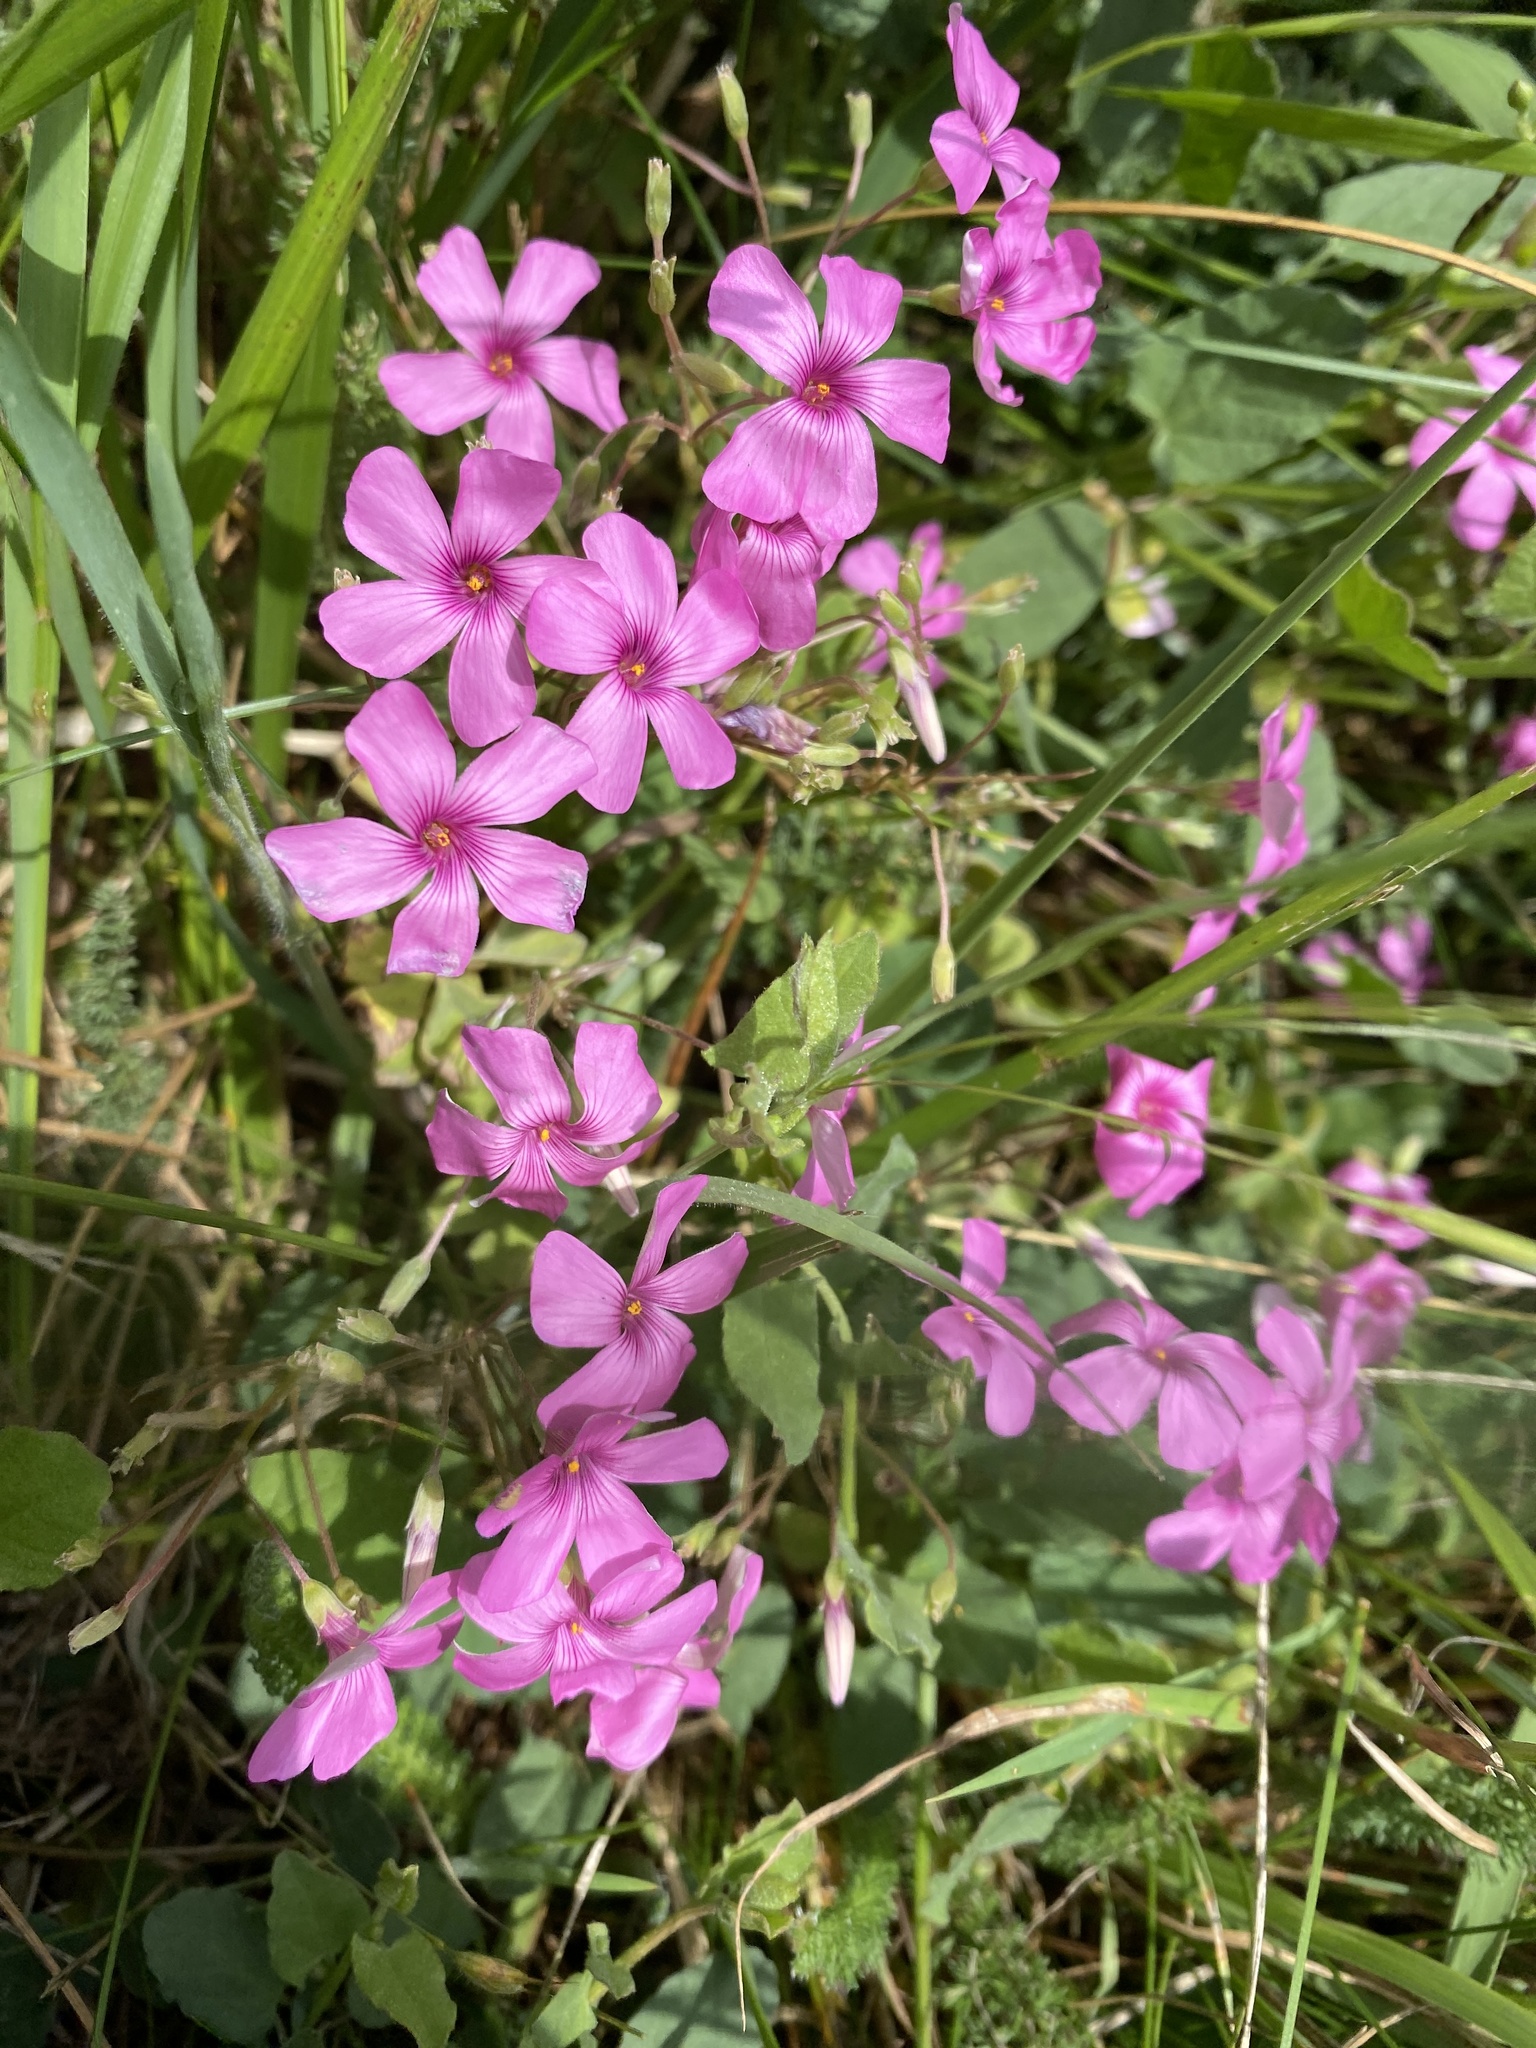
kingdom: Plantae
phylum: Tracheophyta
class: Magnoliopsida
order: Oxalidales
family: Oxalidaceae
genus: Oxalis
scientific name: Oxalis articulata
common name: Pink-sorrel
